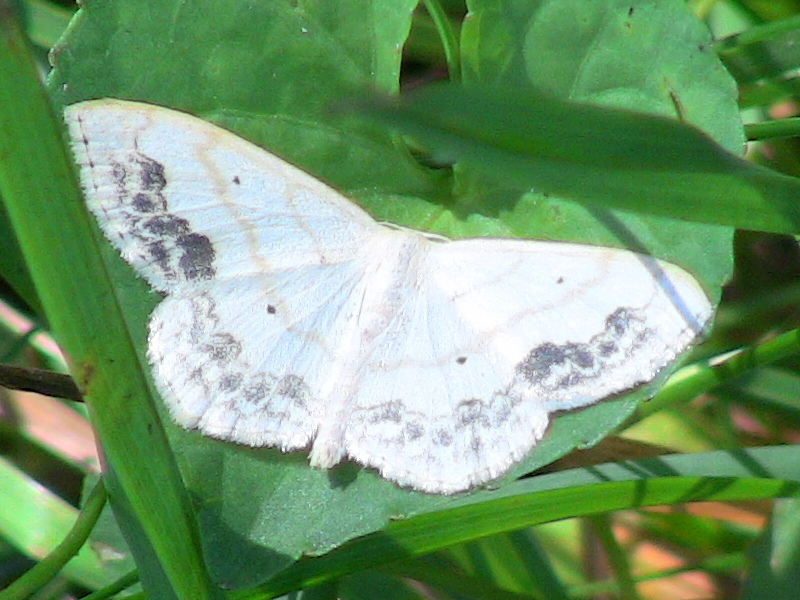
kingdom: Animalia
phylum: Arthropoda
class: Insecta
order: Lepidoptera
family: Geometridae
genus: Scopula
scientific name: Scopula limboundata
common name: Large lace border
